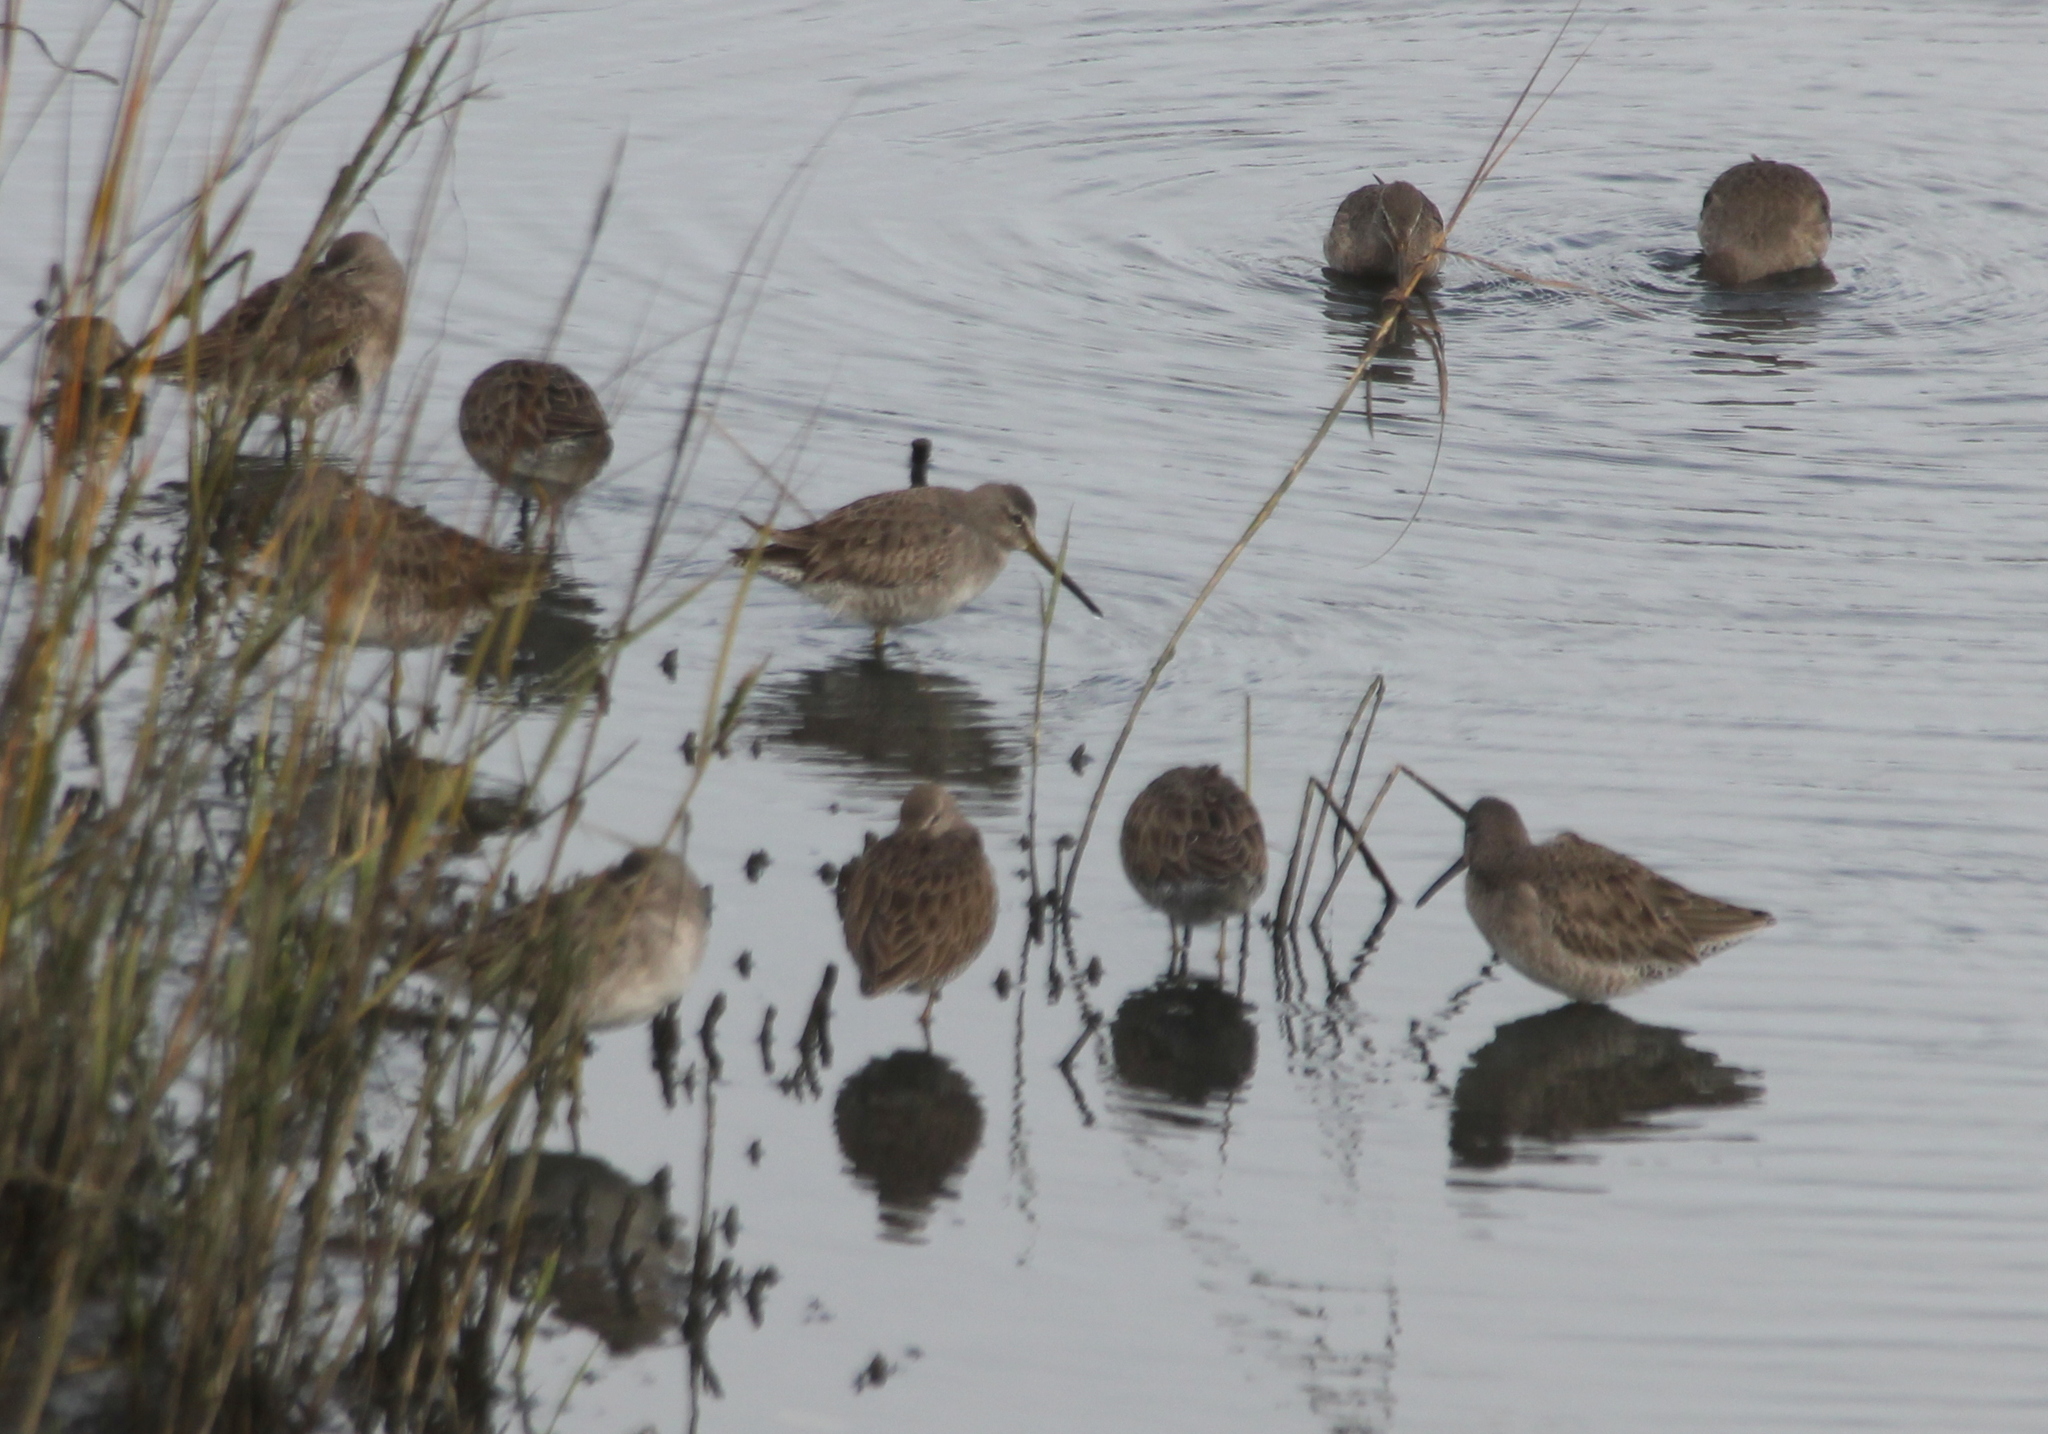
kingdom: Animalia
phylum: Chordata
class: Aves
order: Charadriiformes
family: Scolopacidae
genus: Limnodromus
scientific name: Limnodromus
